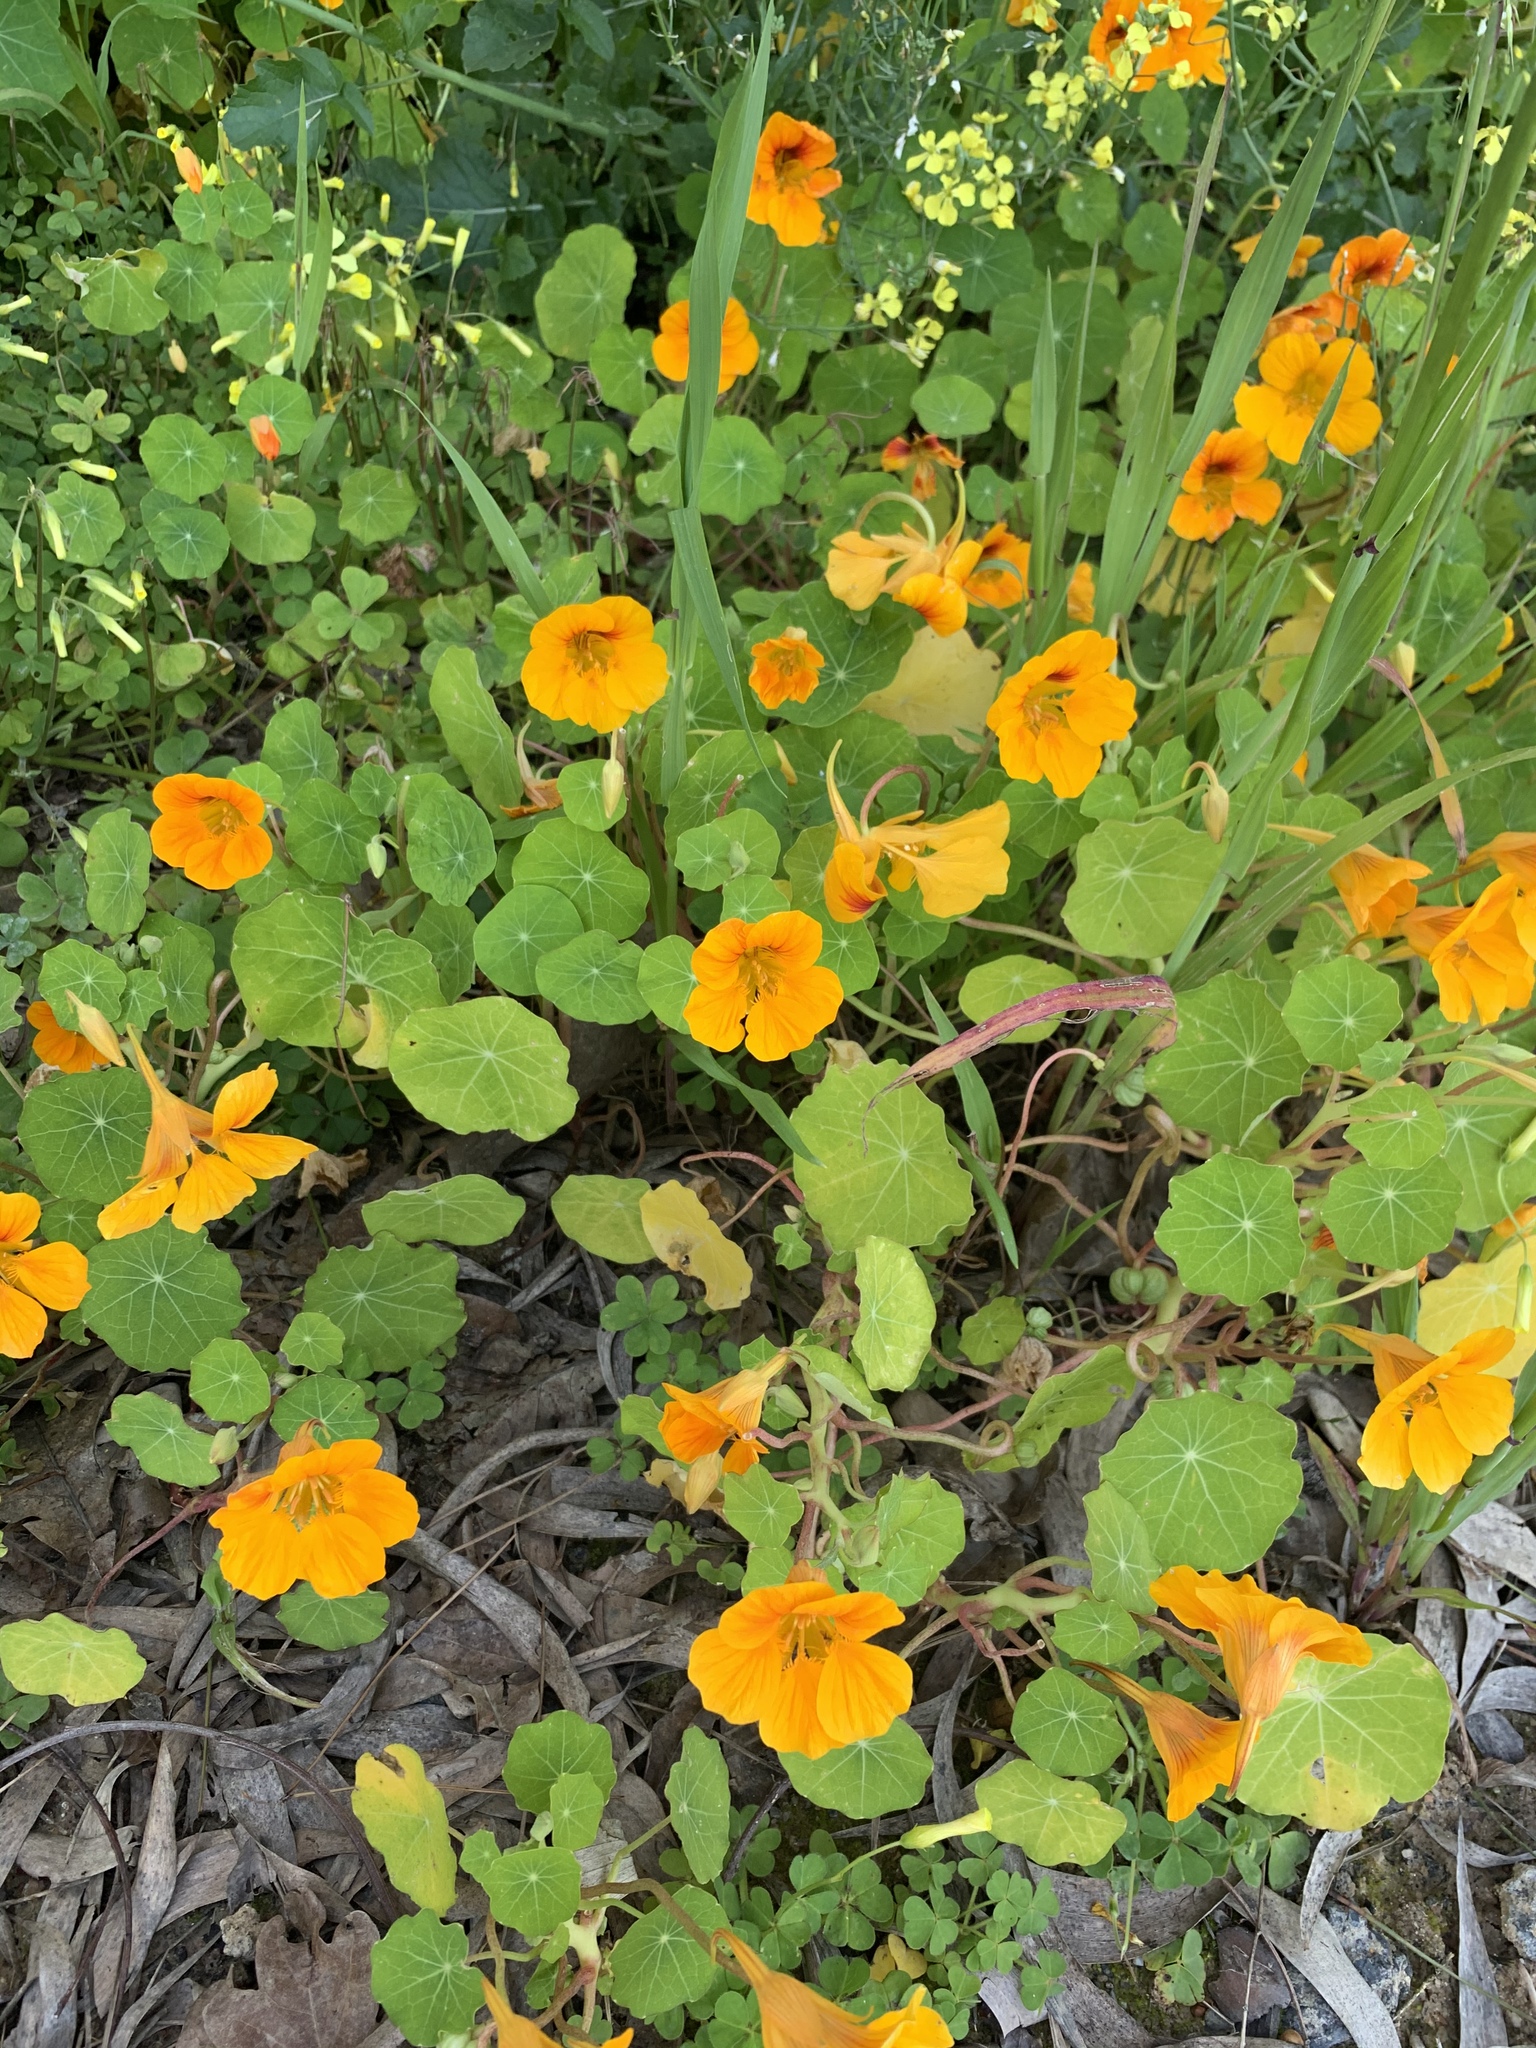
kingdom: Plantae
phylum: Tracheophyta
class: Magnoliopsida
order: Brassicales
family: Tropaeolaceae
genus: Tropaeolum
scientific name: Tropaeolum majus
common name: Nasturtium
